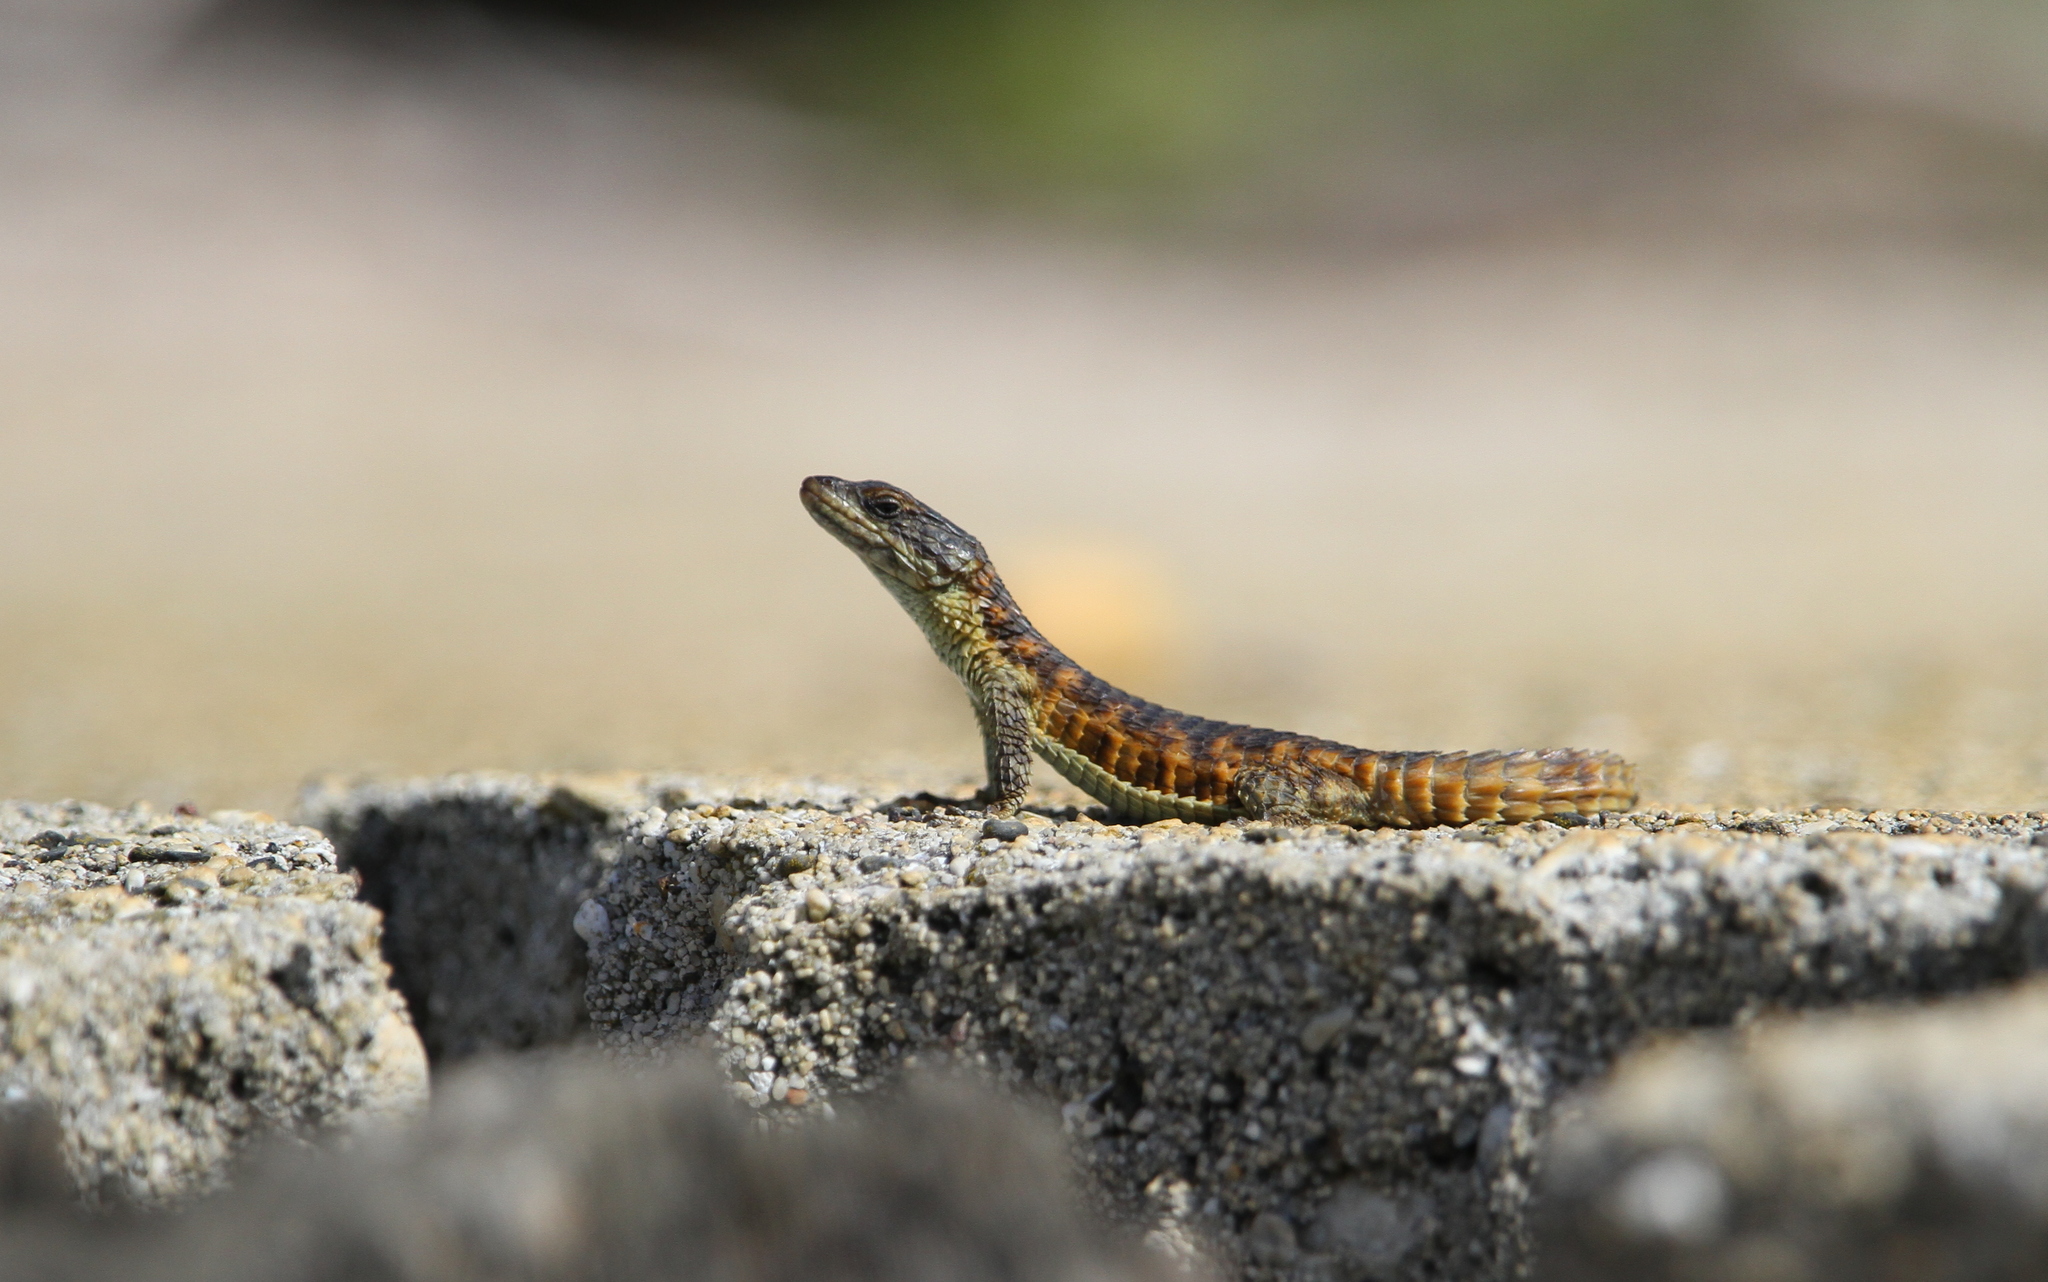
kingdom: Animalia
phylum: Chordata
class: Squamata
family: Cordylidae
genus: Cordylus
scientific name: Cordylus cordylus
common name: Cape girdled lizard
